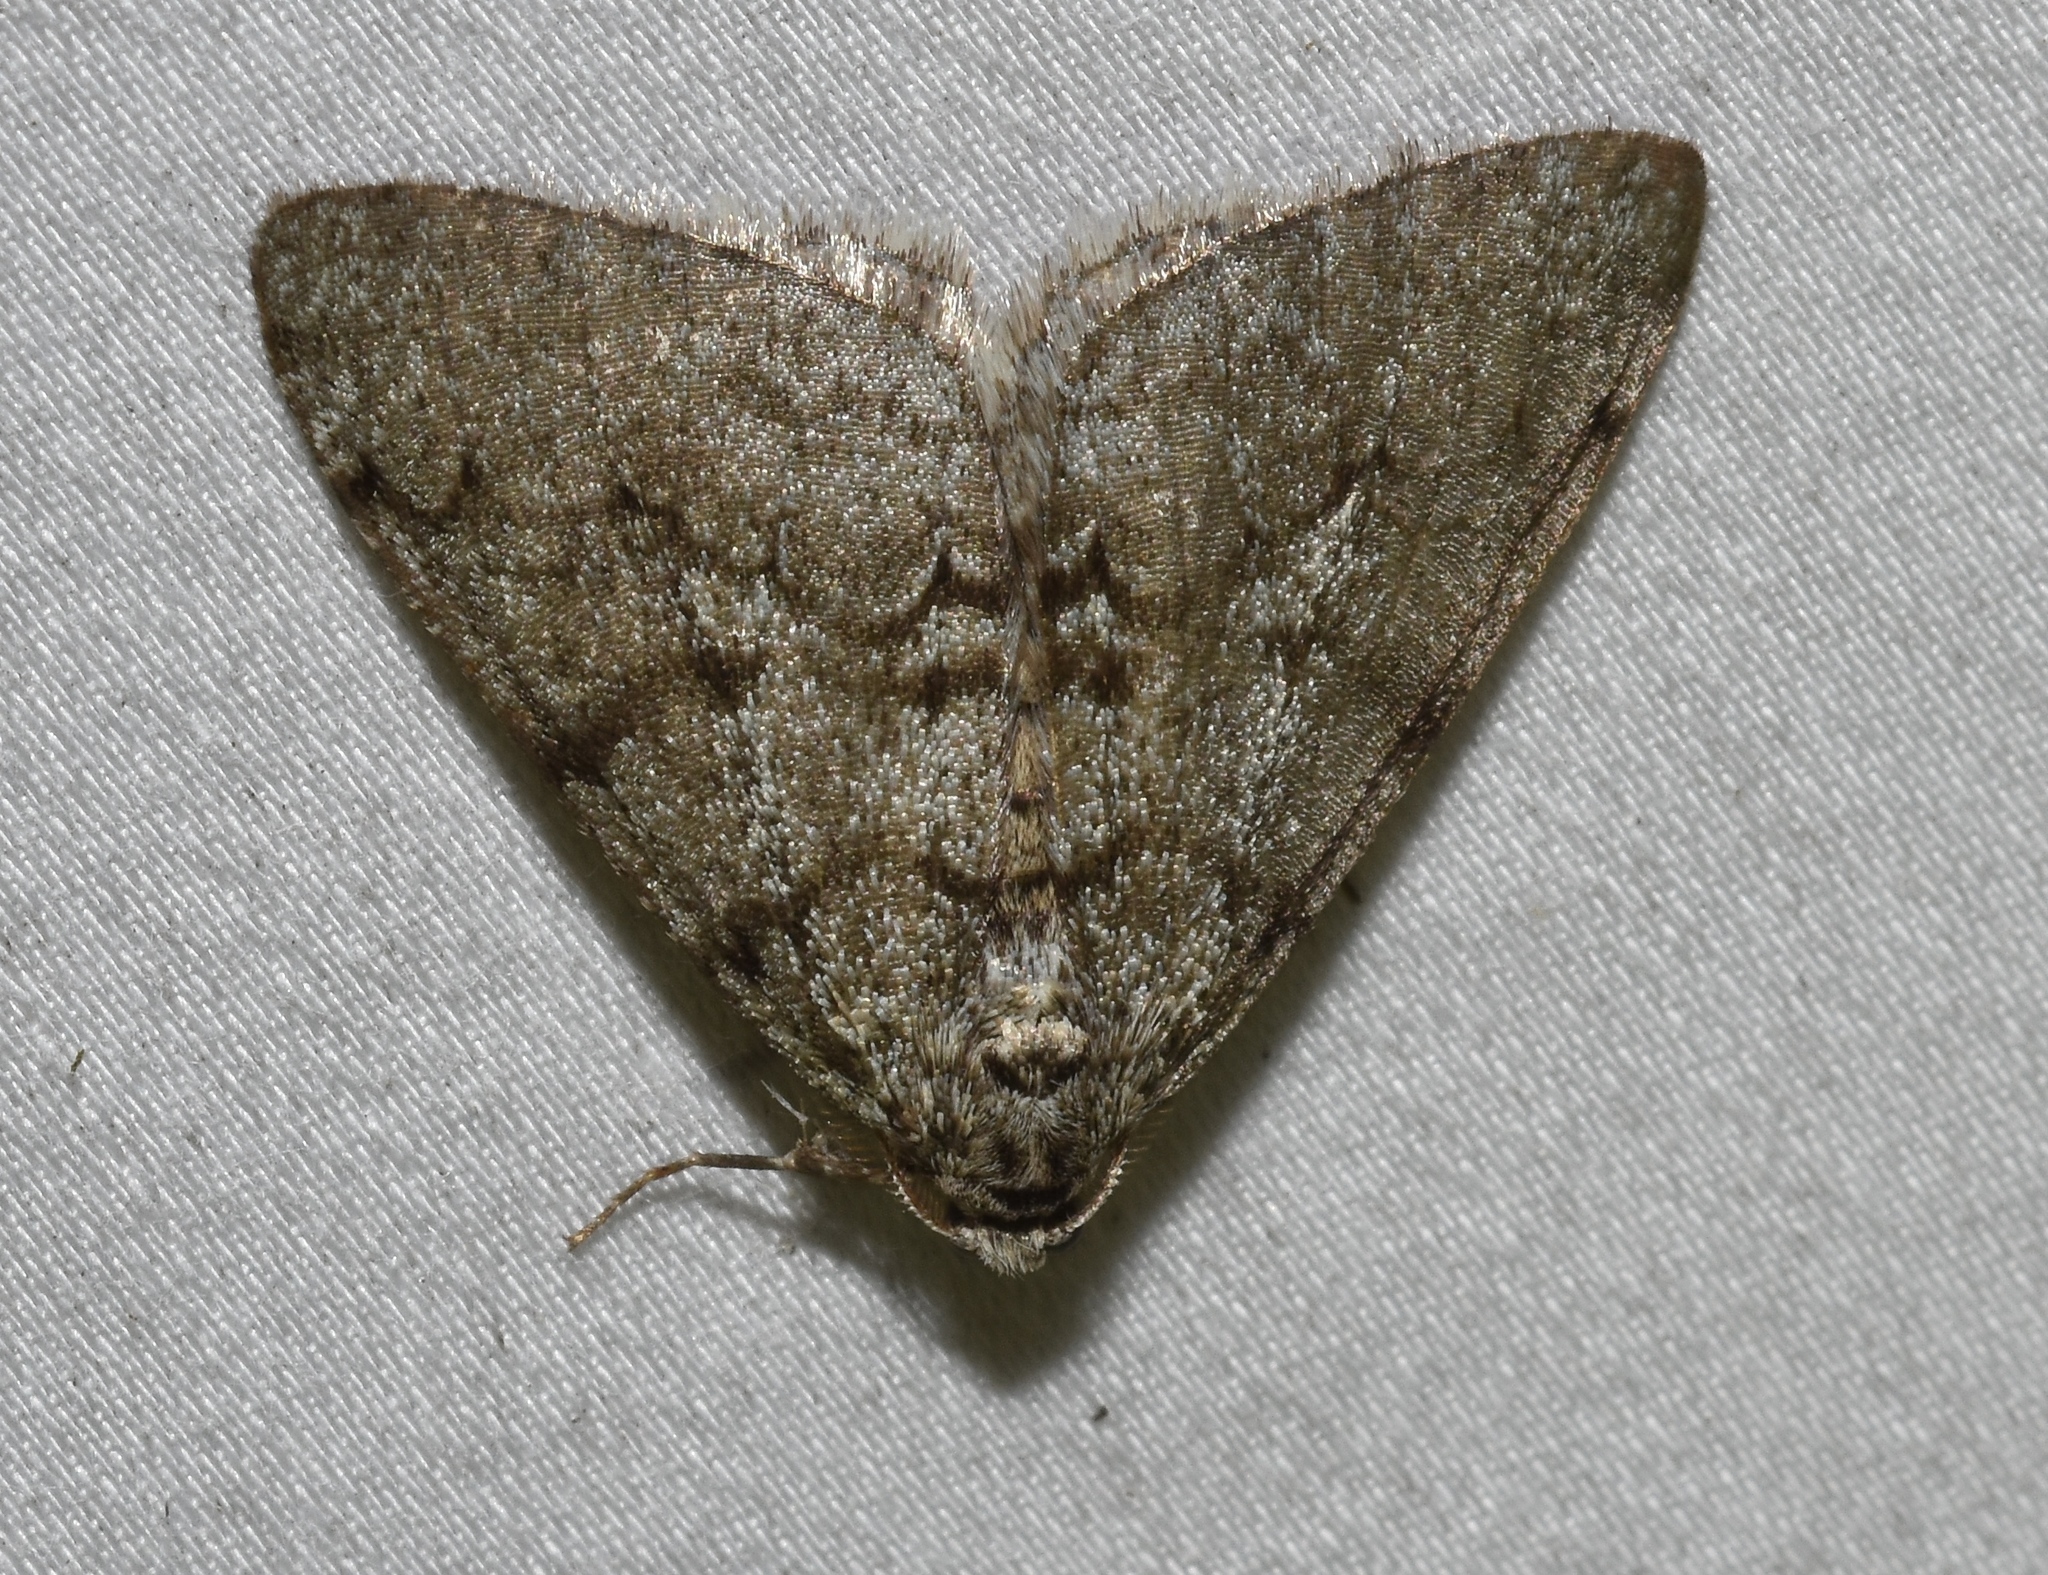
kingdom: Animalia
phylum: Arthropoda
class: Insecta
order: Lepidoptera
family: Geometridae
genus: Phigalia
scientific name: Phigalia strigataria
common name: Small phigalia
